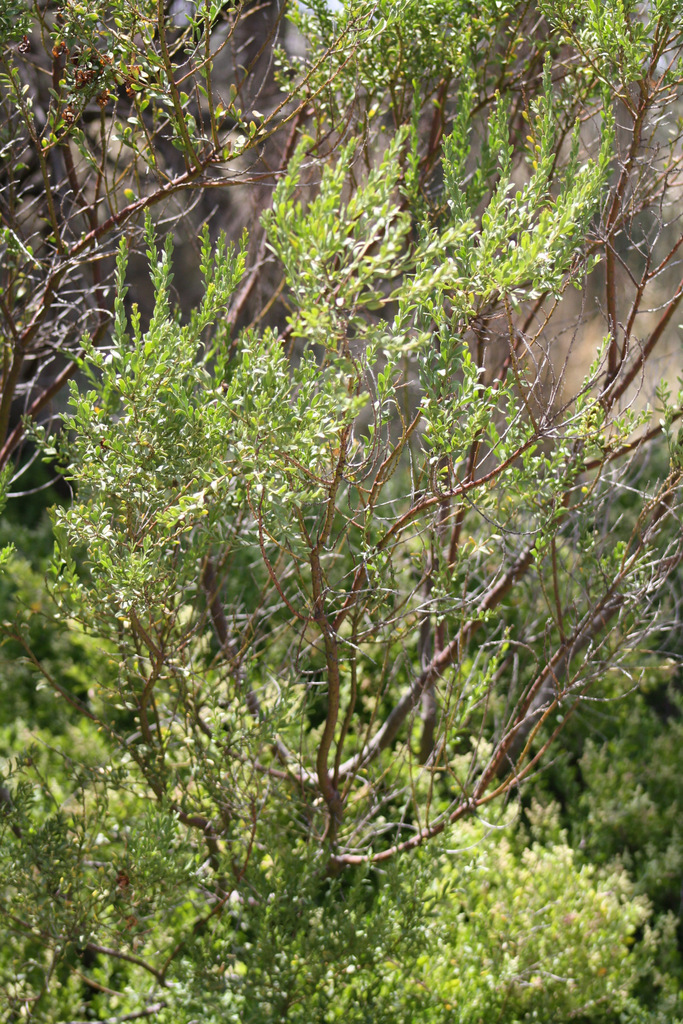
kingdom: Plantae
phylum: Tracheophyta
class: Magnoliopsida
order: Fabales
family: Fabaceae
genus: Acacia
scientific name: Acacia acinacea
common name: Gold-dust acacia
